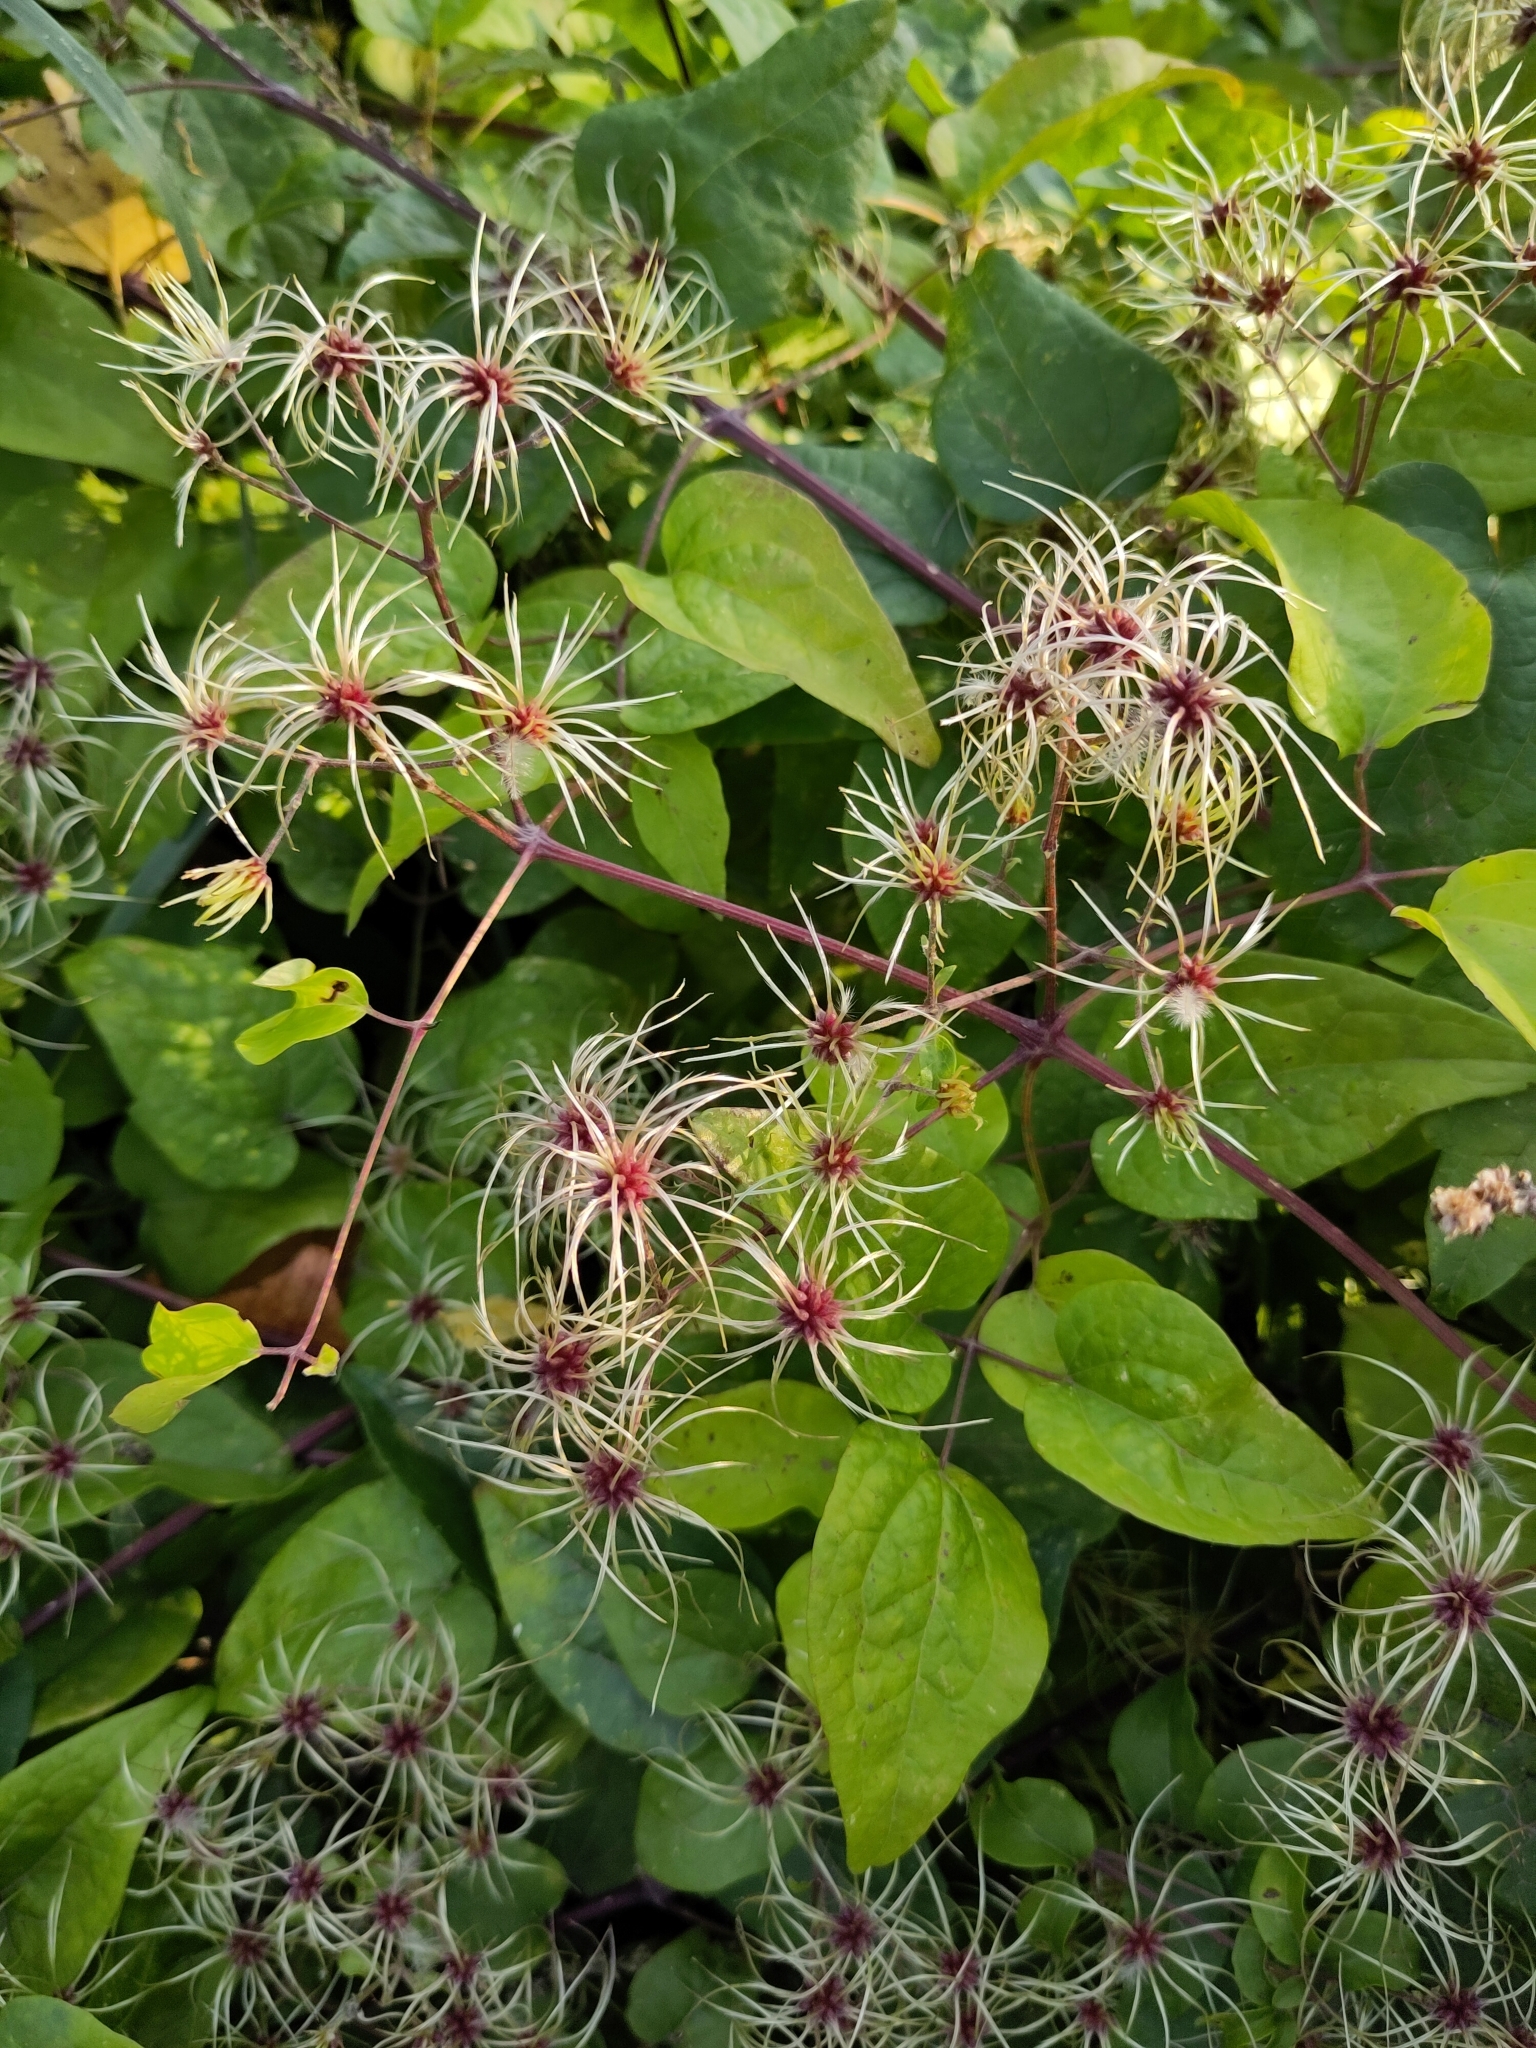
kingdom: Plantae
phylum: Tracheophyta
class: Magnoliopsida
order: Ranunculales
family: Ranunculaceae
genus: Clematis
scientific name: Clematis vitalba
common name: Evergreen clematis
